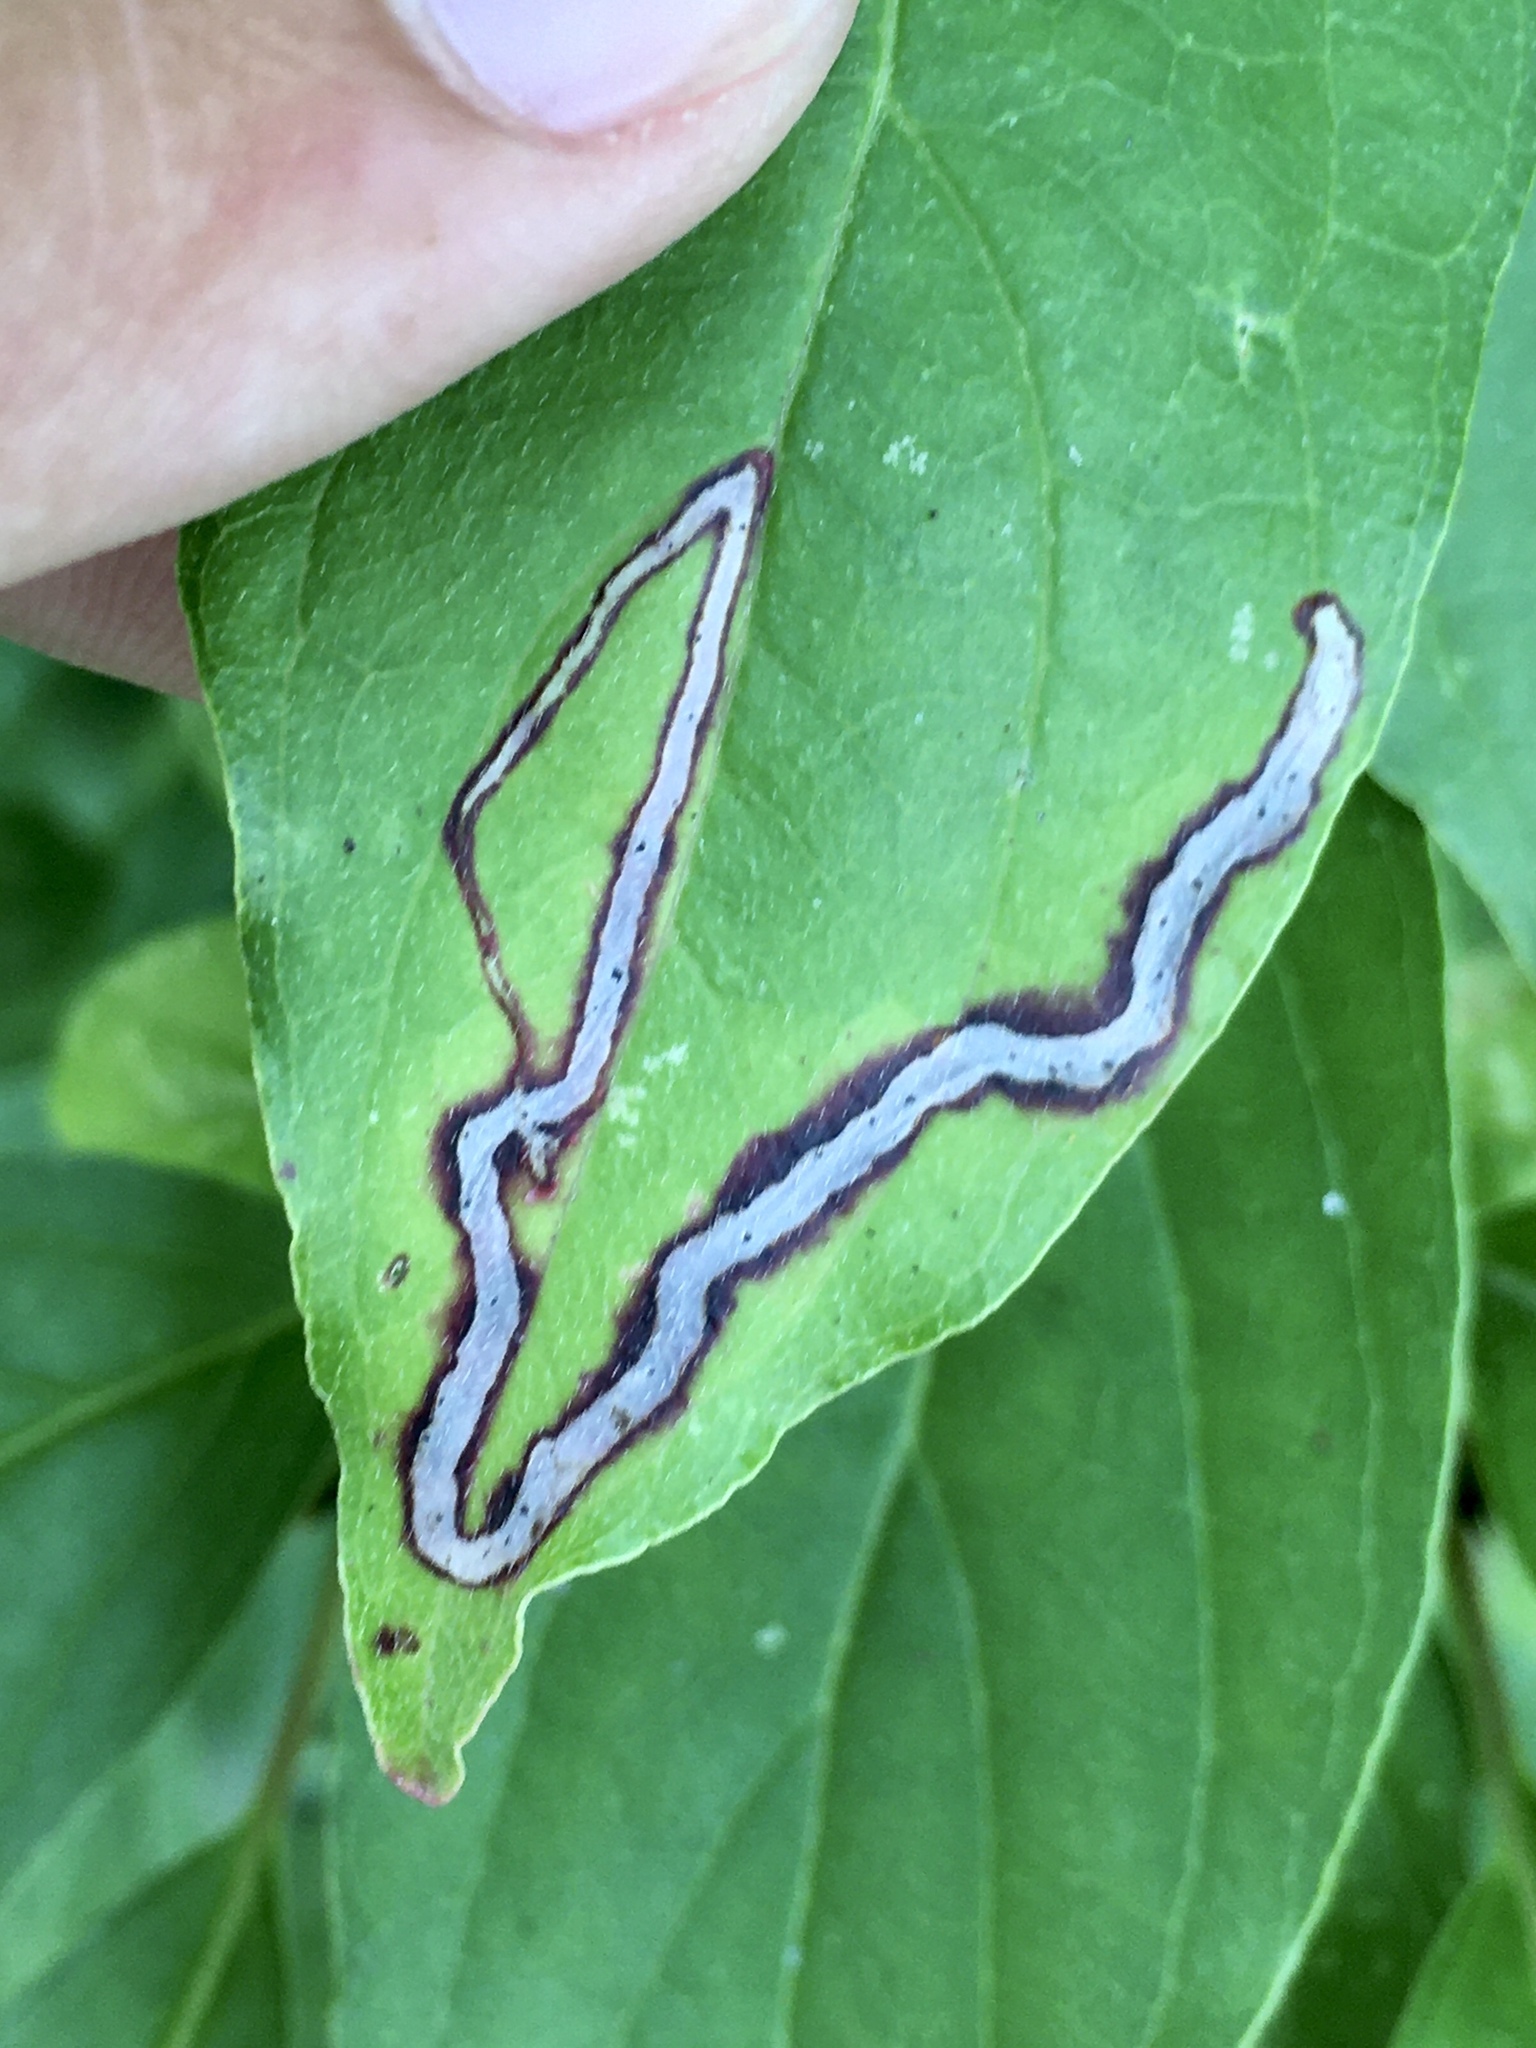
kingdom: Animalia
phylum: Arthropoda
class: Insecta
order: Diptera
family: Agromyzidae
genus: Phytomyza
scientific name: Phytomyza agromyzina
